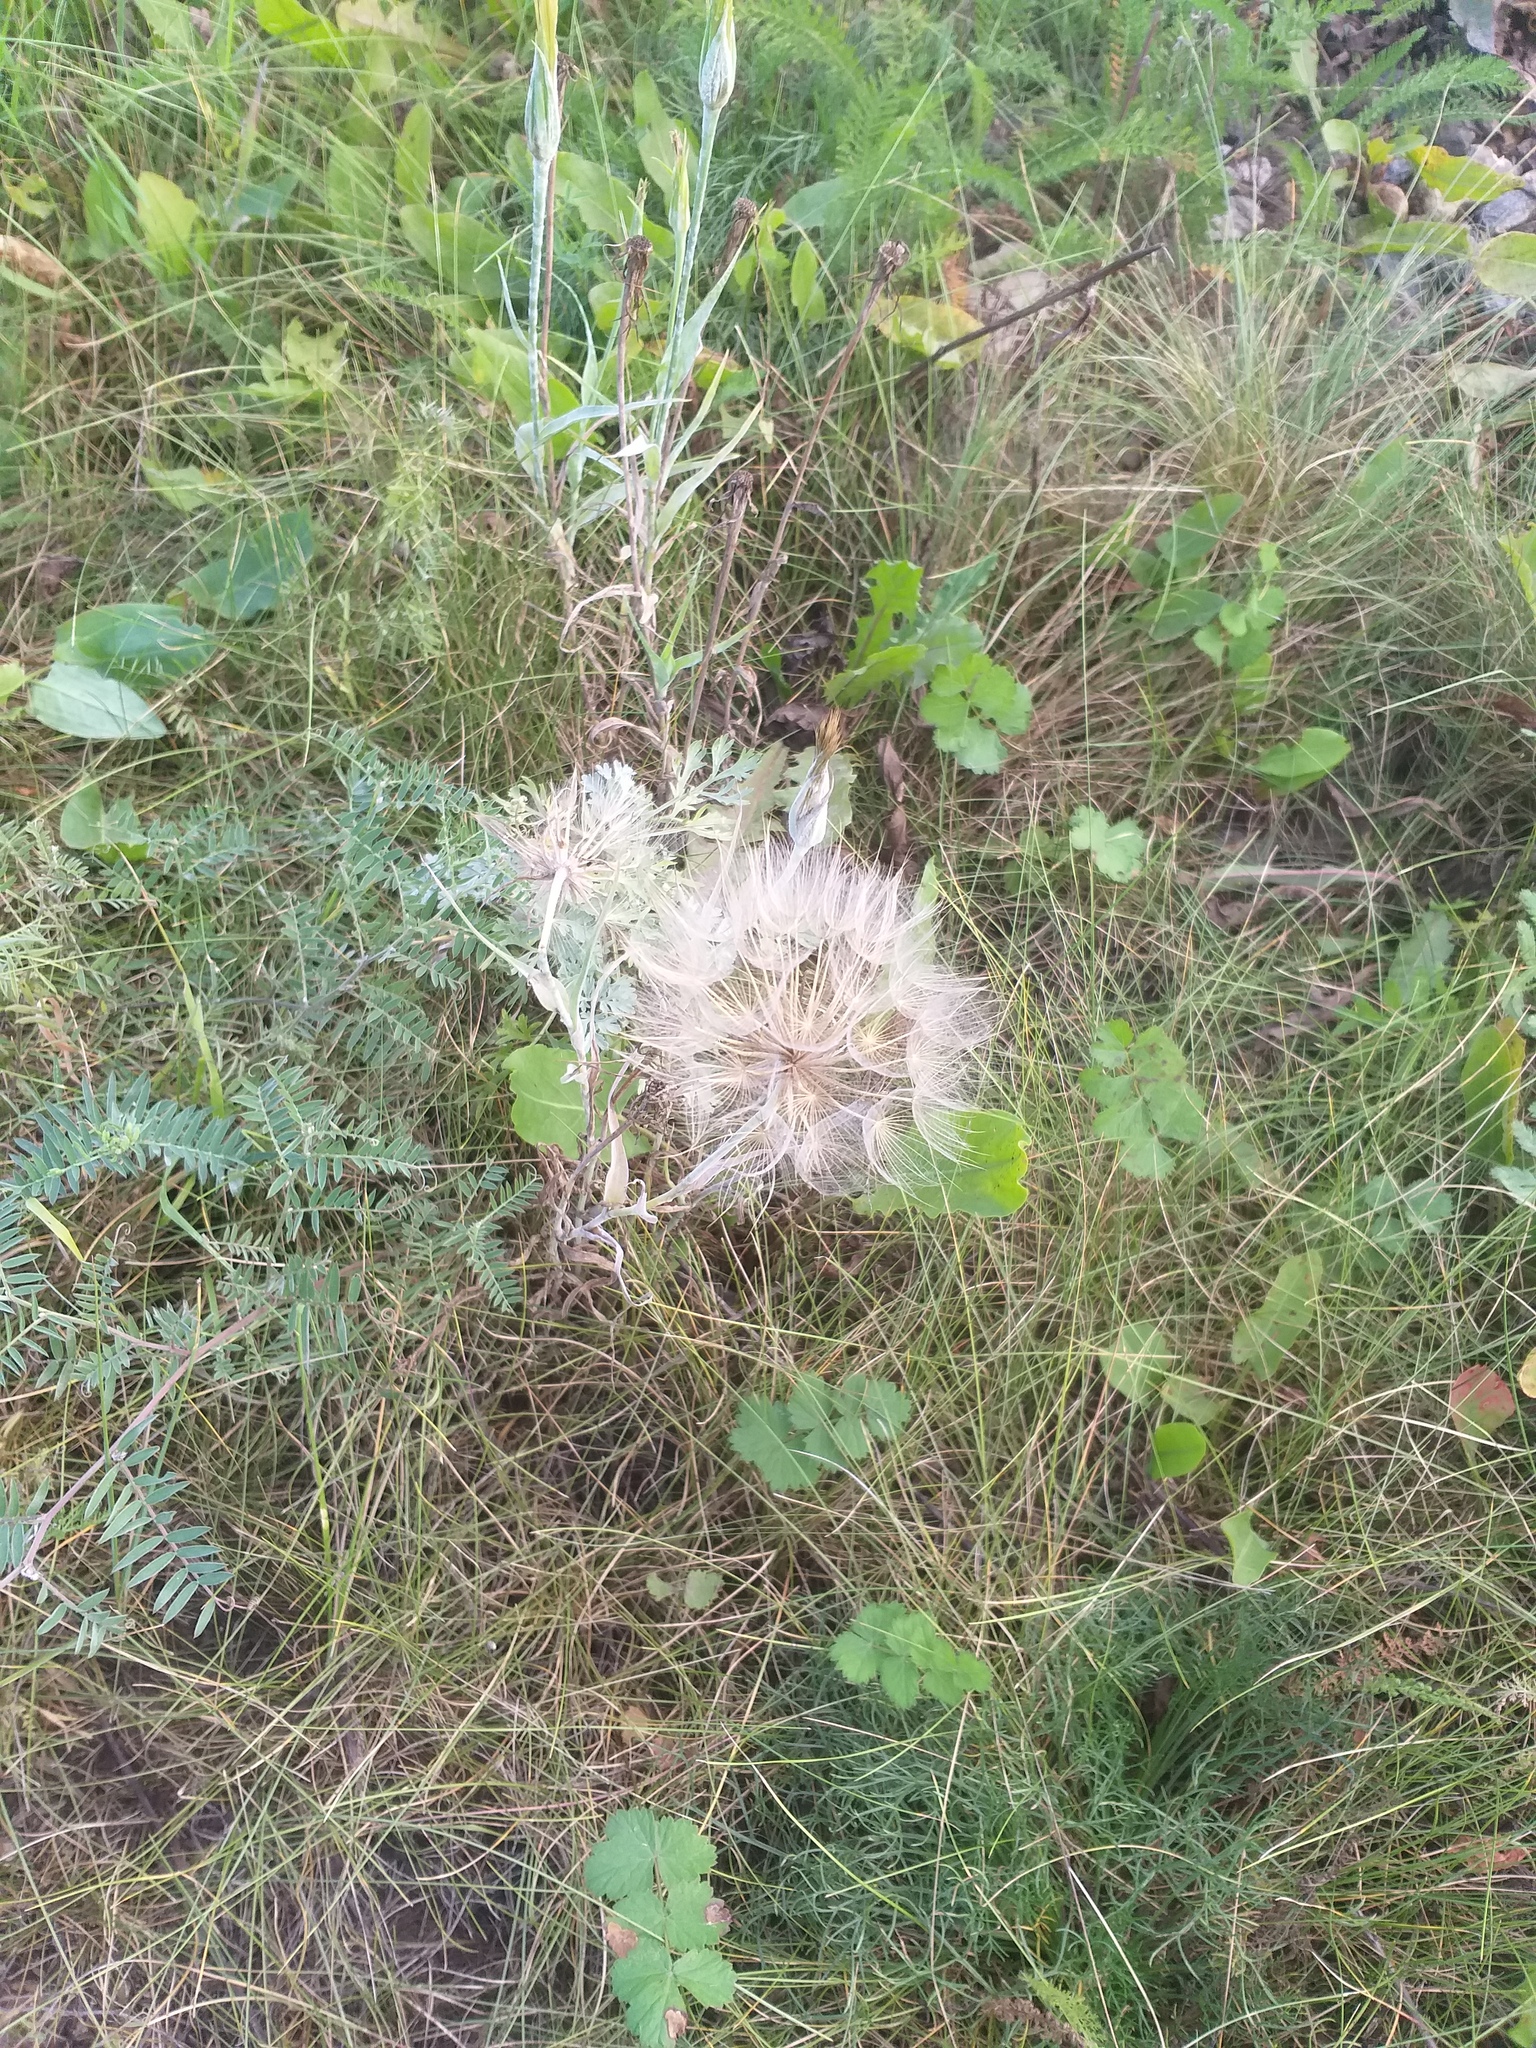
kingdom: Plantae
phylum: Tracheophyta
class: Magnoliopsida
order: Asterales
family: Asteraceae
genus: Tragopogon
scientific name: Tragopogon dubius
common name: Yellow salsify
